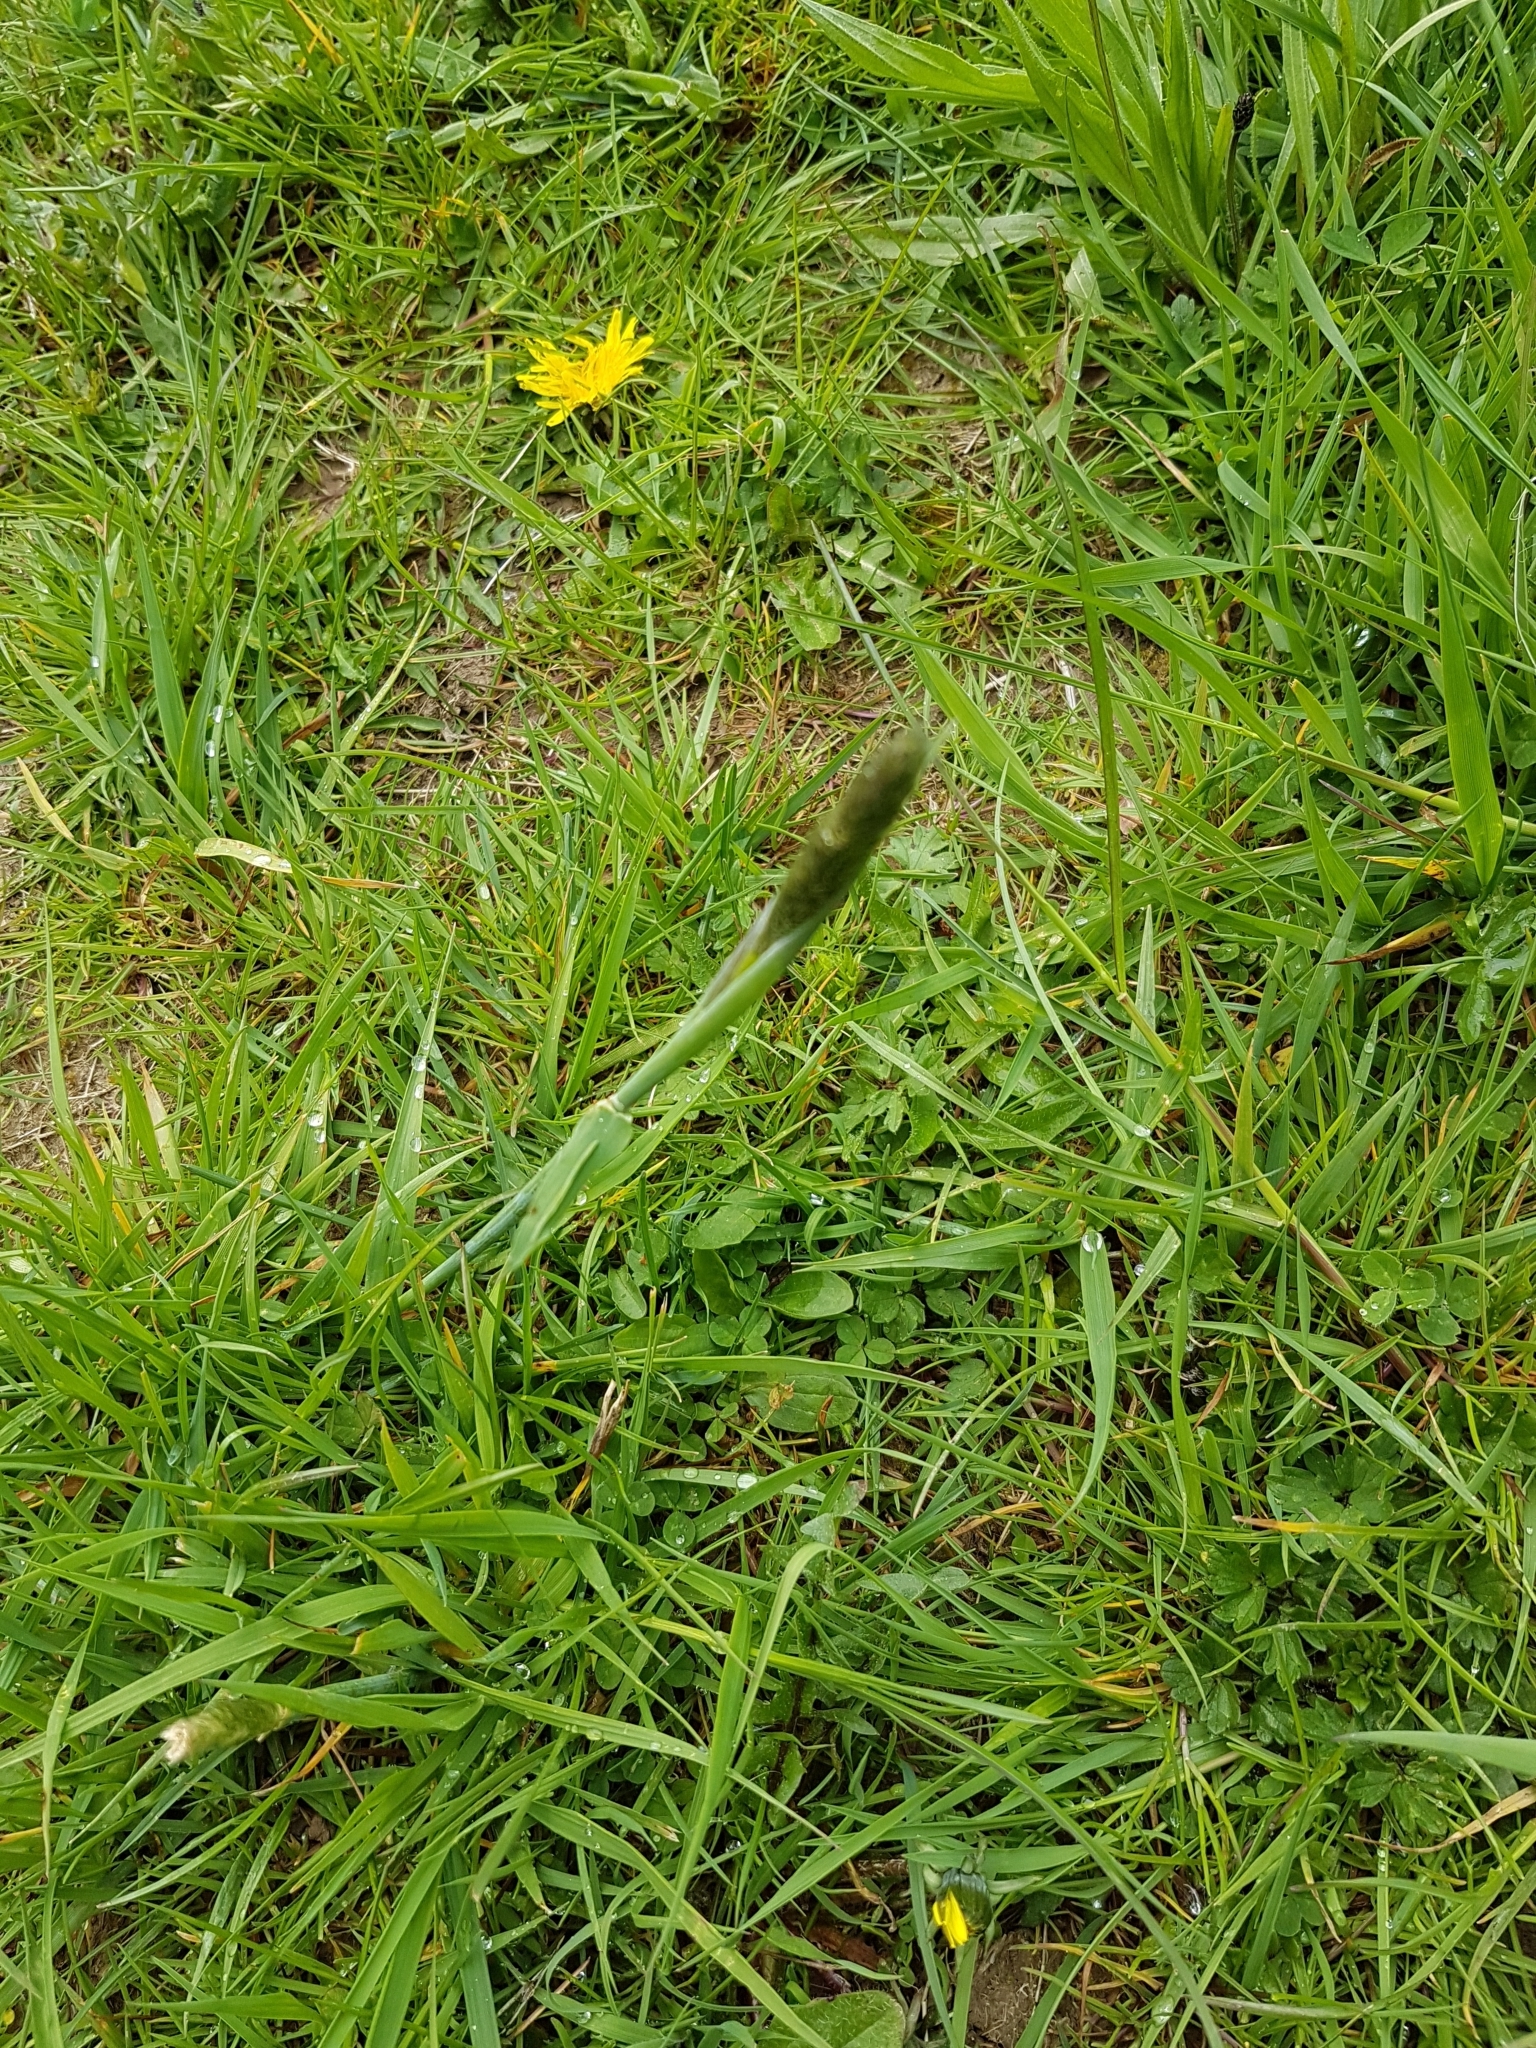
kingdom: Plantae
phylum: Tracheophyta
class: Liliopsida
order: Poales
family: Poaceae
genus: Alopecurus
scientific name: Alopecurus pratensis
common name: Meadow foxtail
